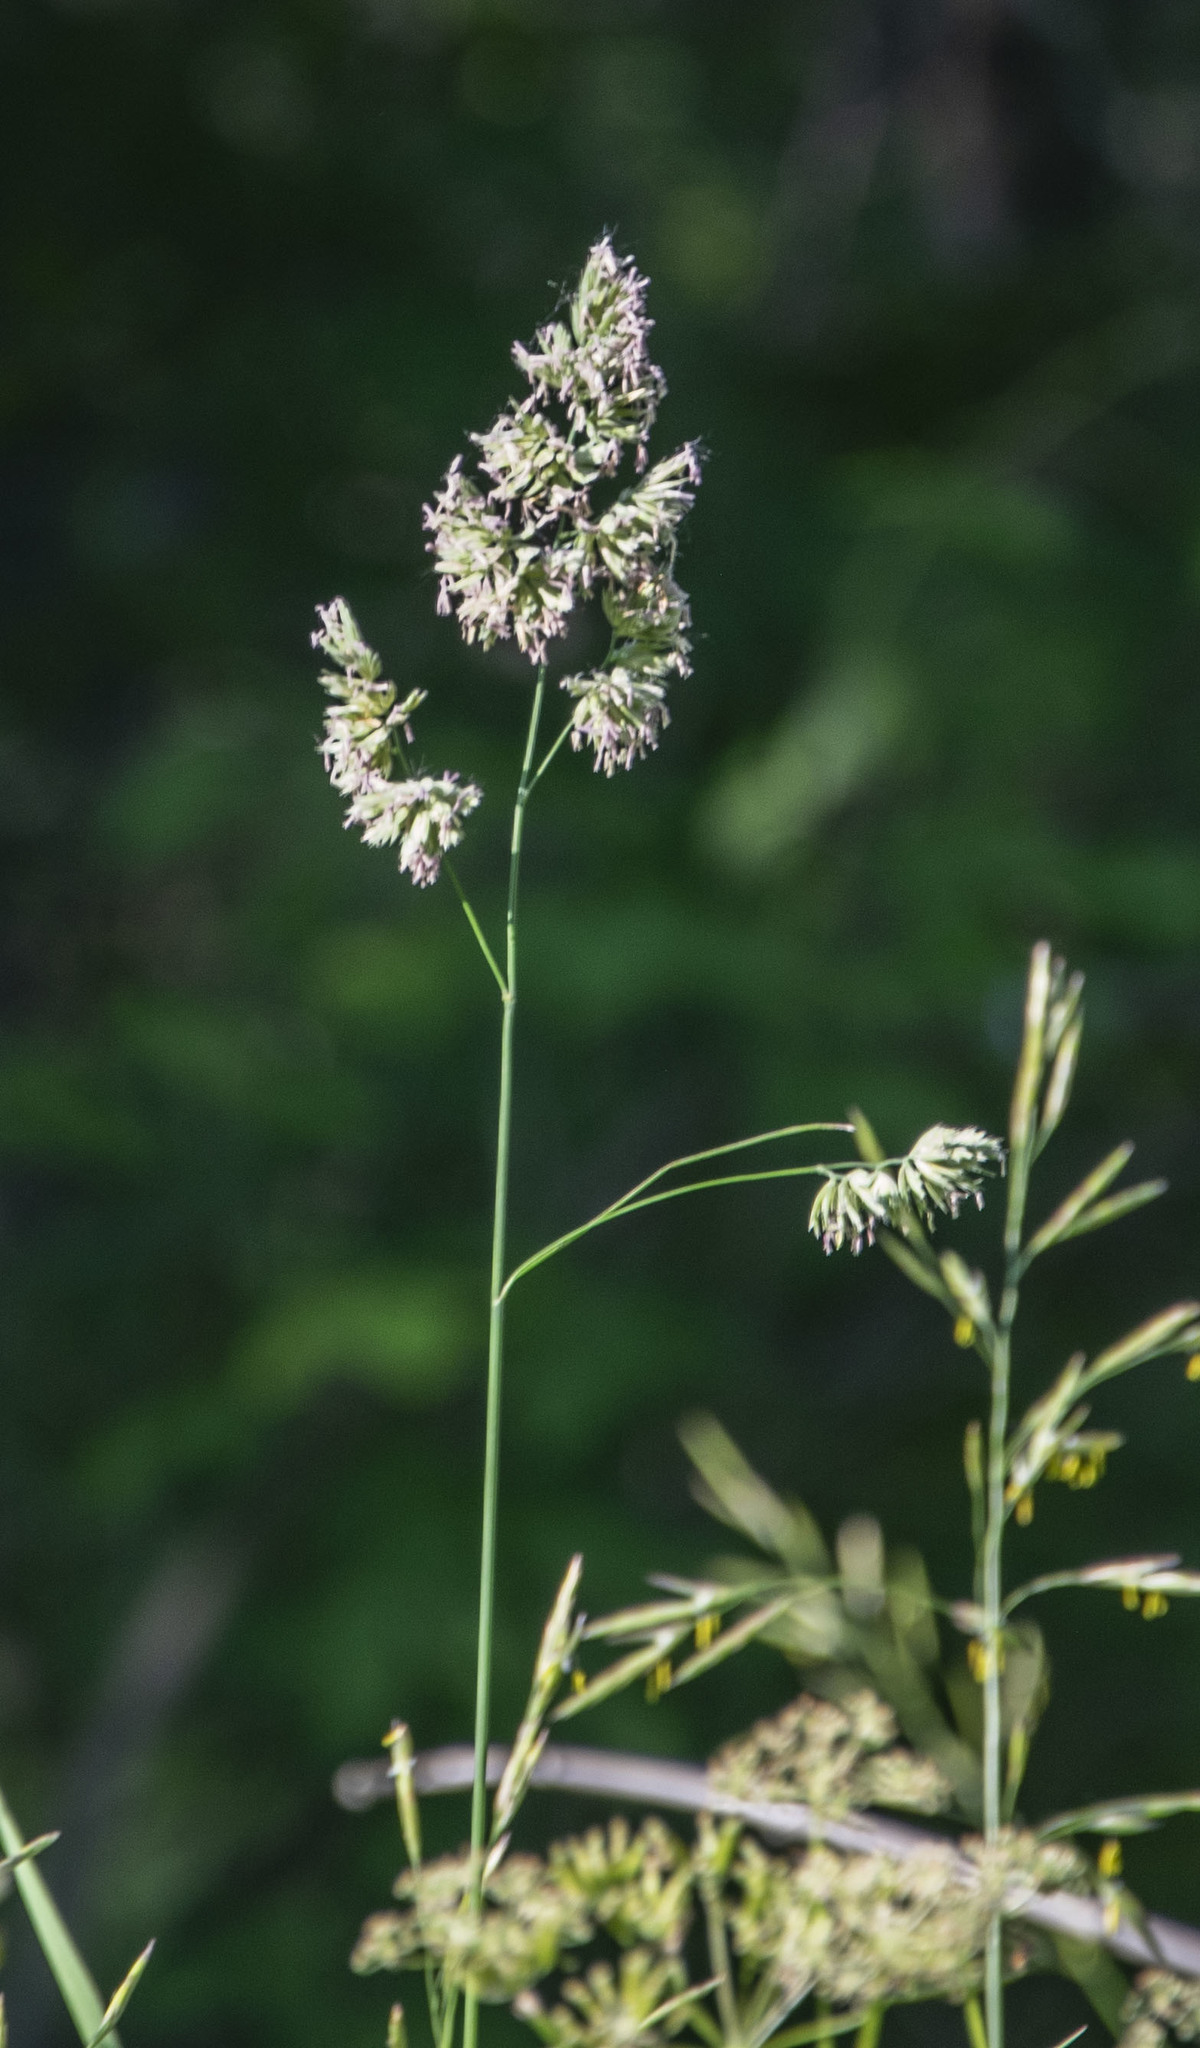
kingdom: Plantae
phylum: Tracheophyta
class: Liliopsida
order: Poales
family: Poaceae
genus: Dactylis
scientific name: Dactylis glomerata
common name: Orchardgrass
